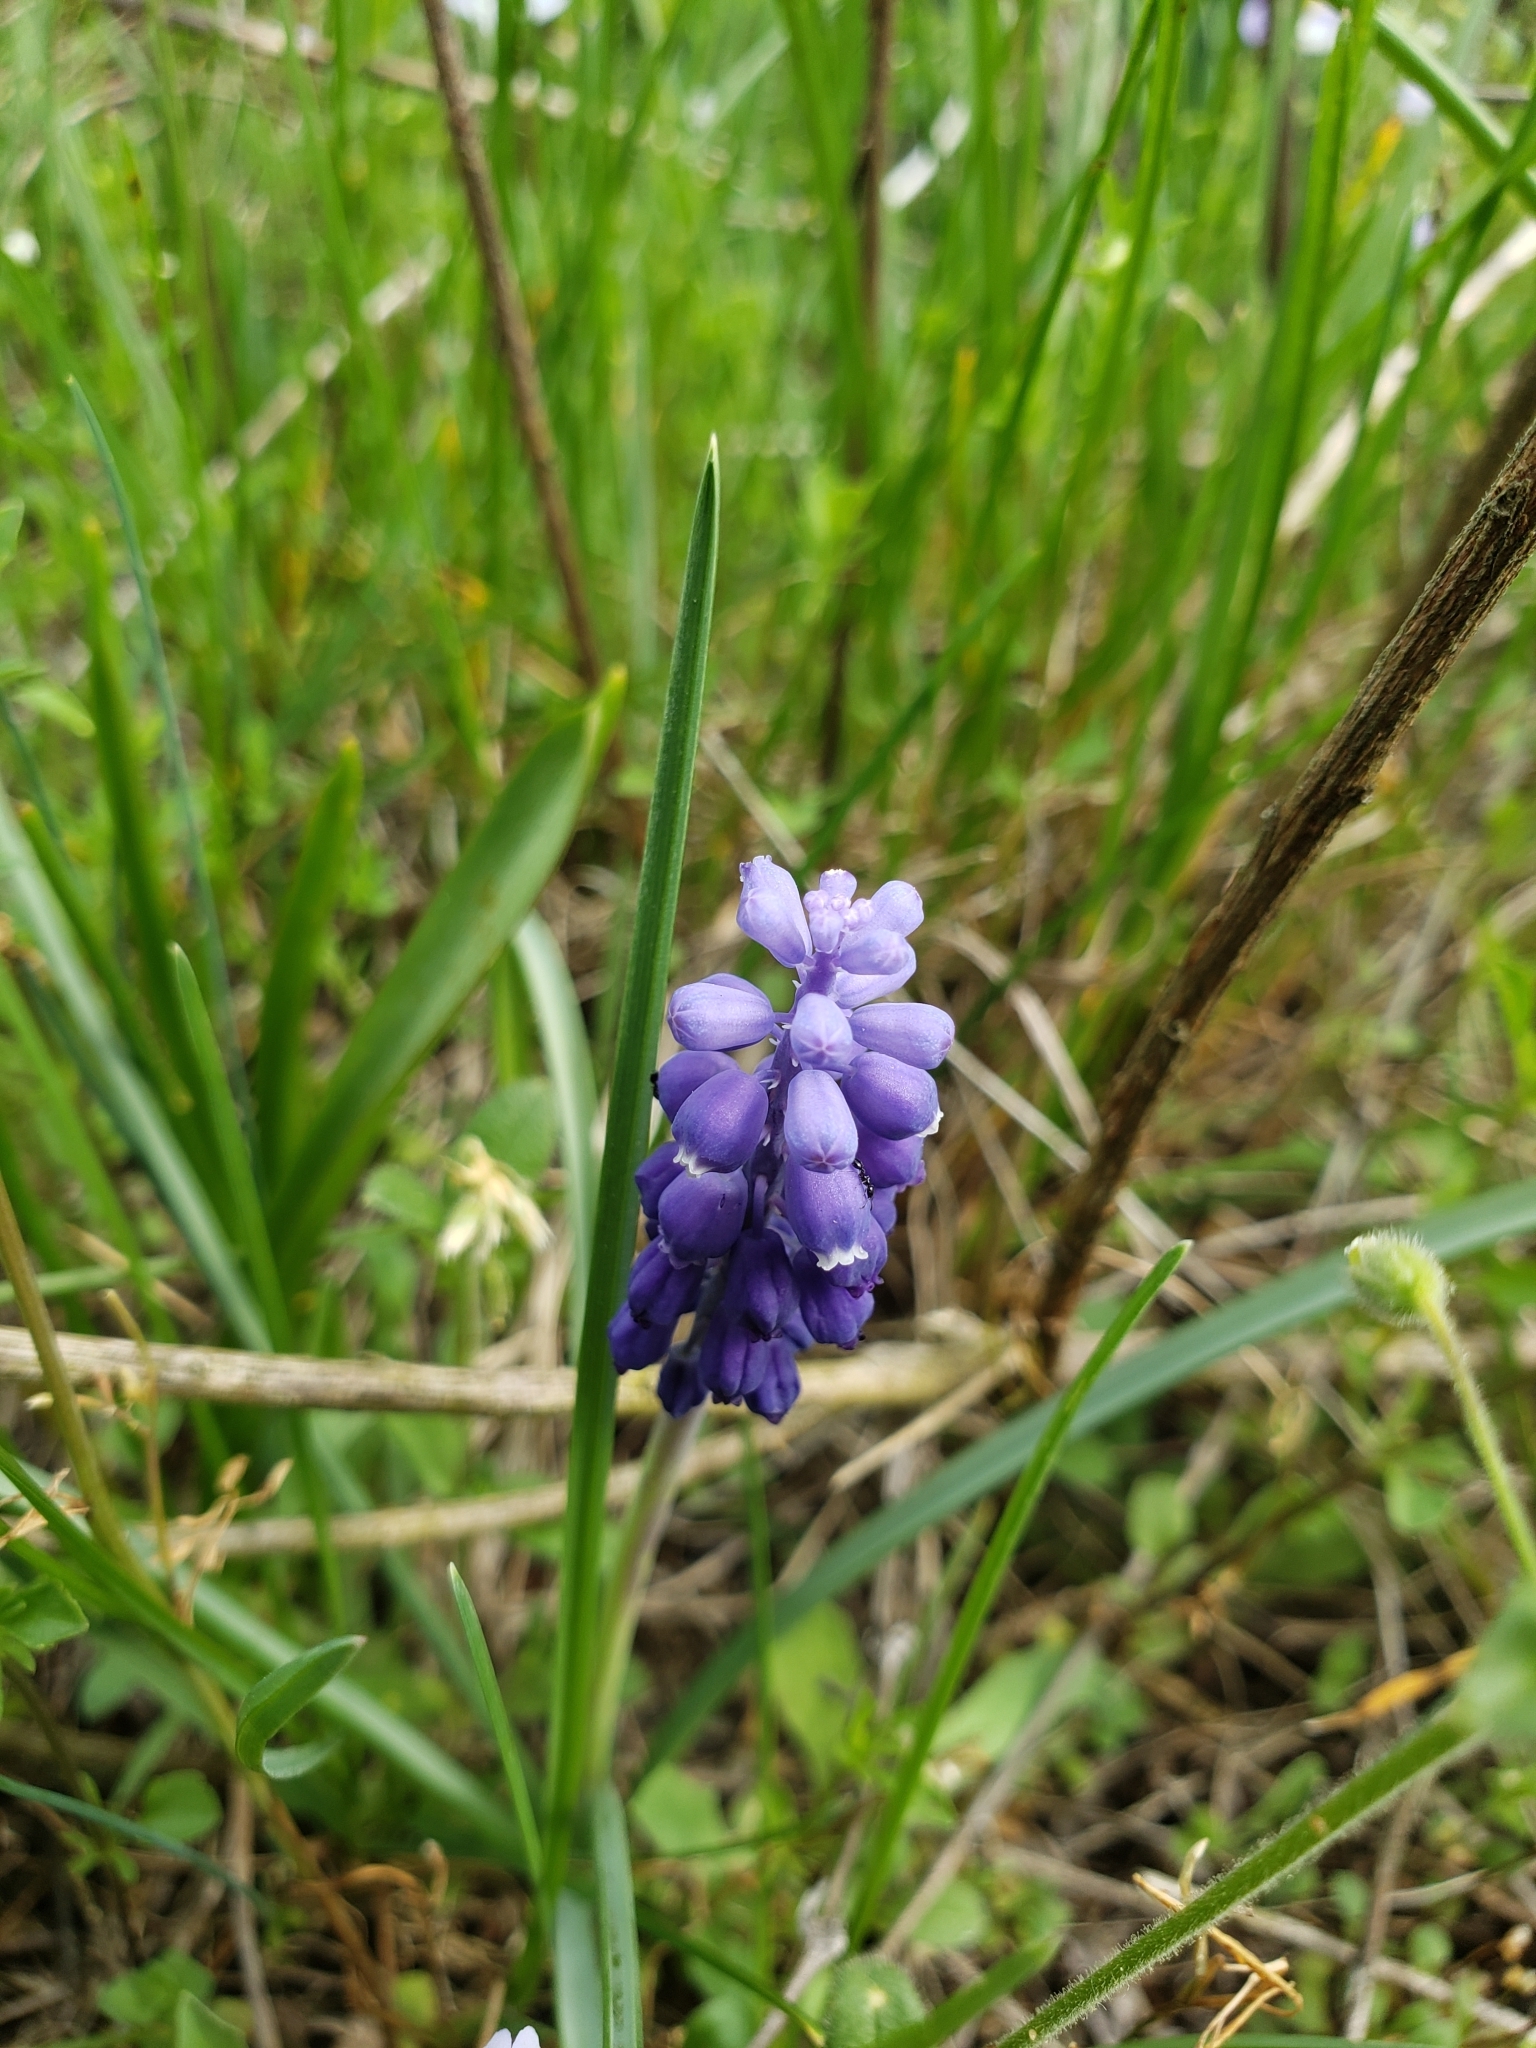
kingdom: Plantae
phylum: Tracheophyta
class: Liliopsida
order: Asparagales
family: Asparagaceae
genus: Muscari
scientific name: Muscari botryoides
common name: Compact grape-hyacinth
